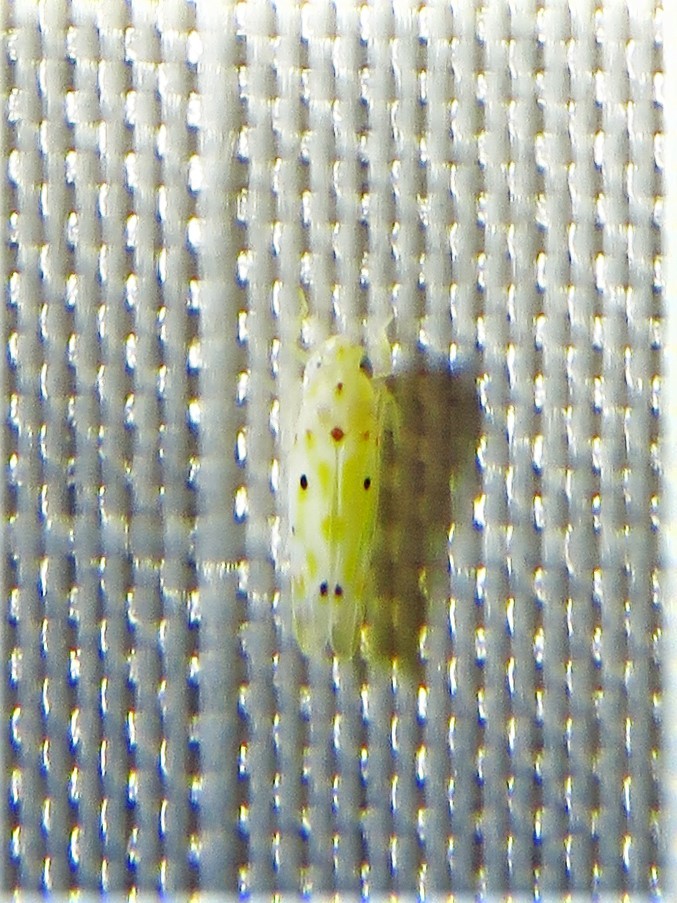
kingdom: Animalia
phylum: Arthropoda
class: Insecta
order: Hemiptera
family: Cicadellidae
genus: Illinigina
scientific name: Illinigina illinoiensis
